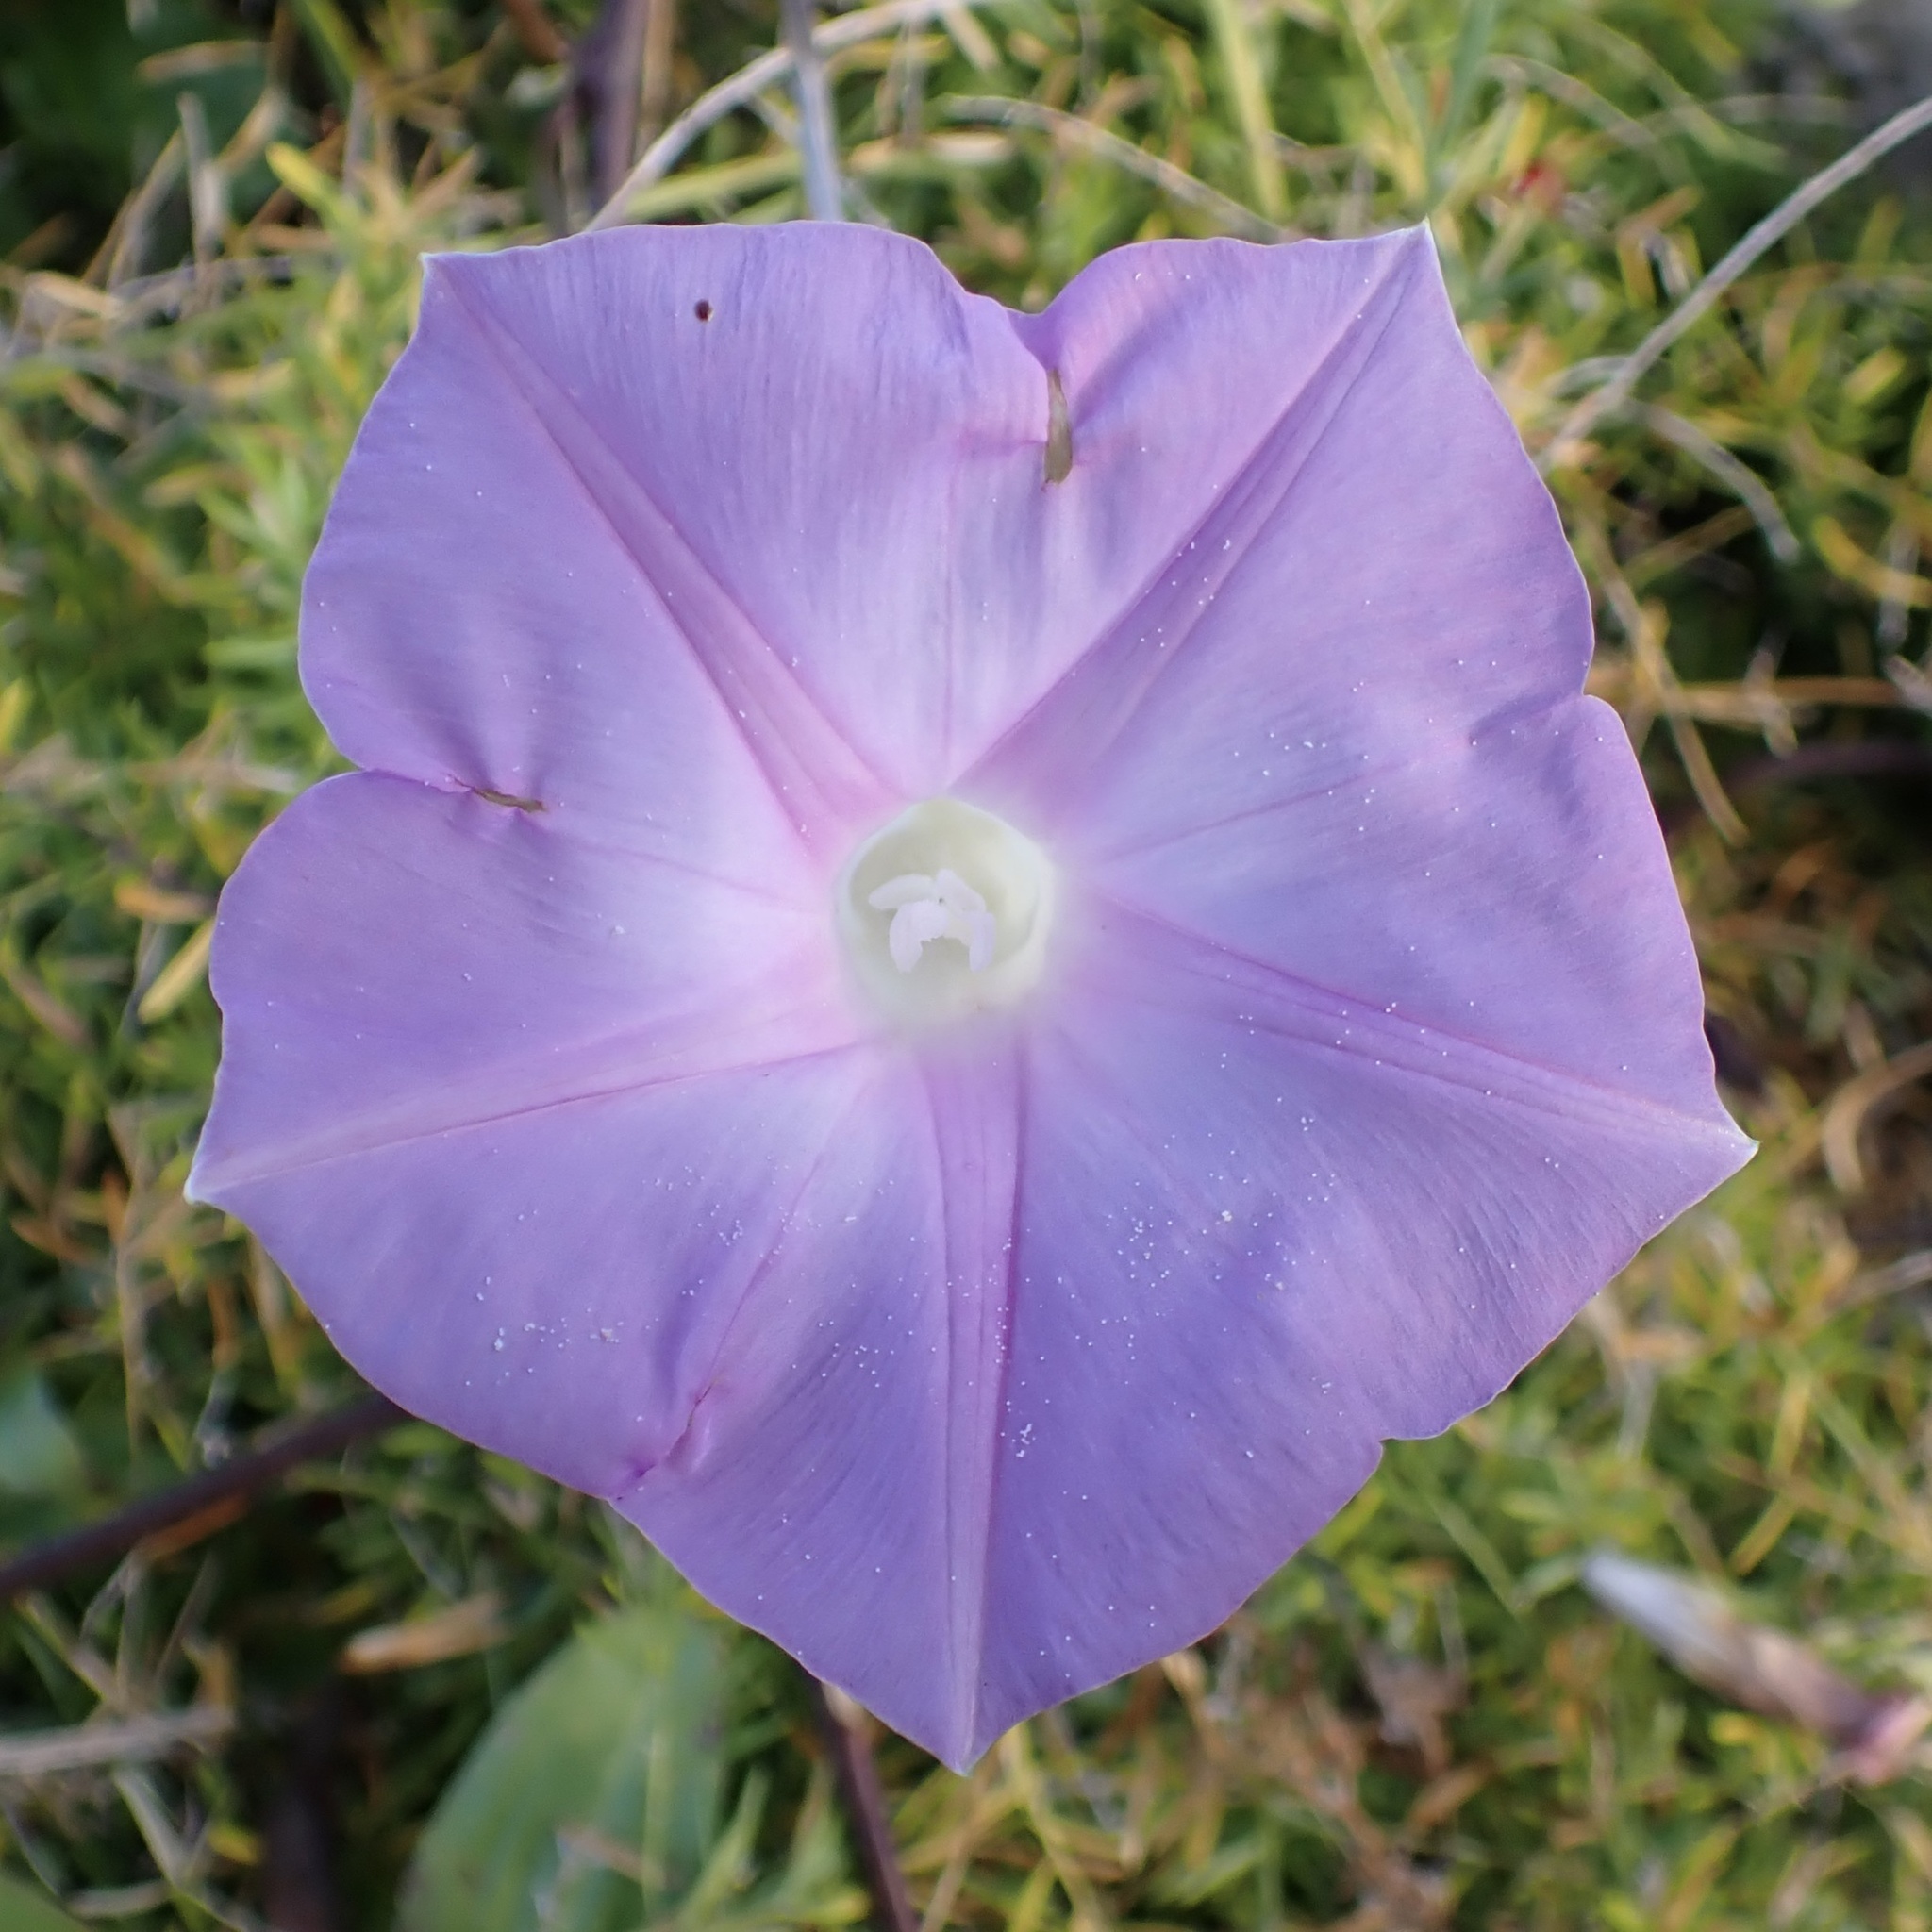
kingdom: Plantae
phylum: Tracheophyta
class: Magnoliopsida
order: Solanales
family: Convolvulaceae
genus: Ipomoea
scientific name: Ipomoea indica
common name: Blue dawnflower
